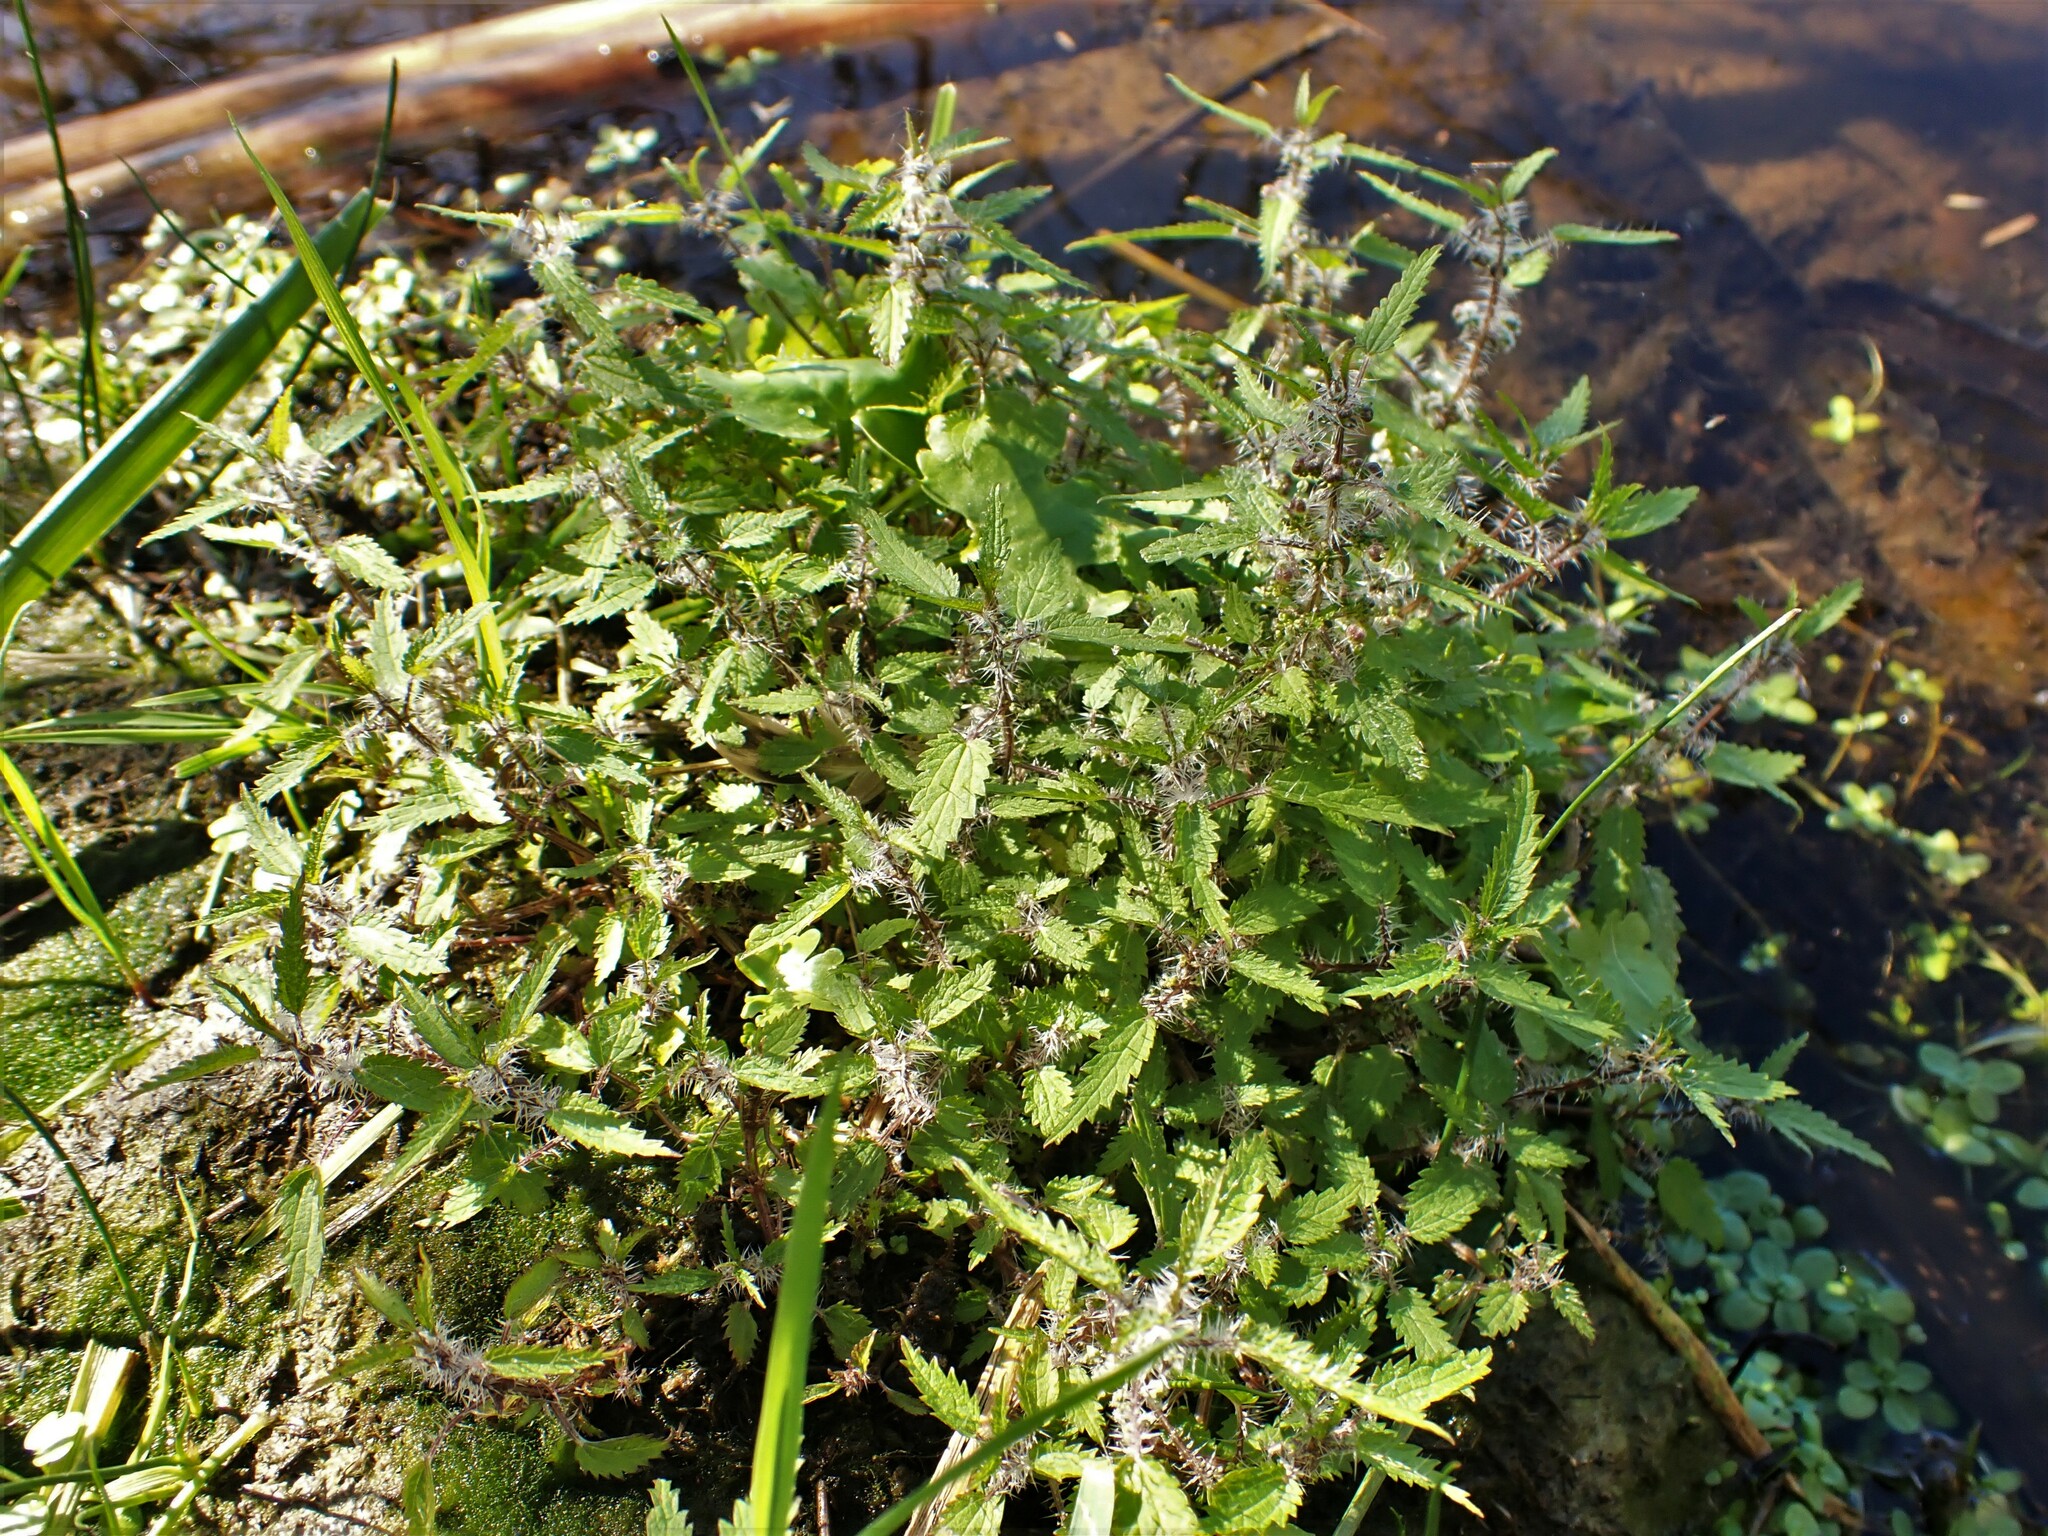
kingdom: Plantae
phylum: Tracheophyta
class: Magnoliopsida
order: Rosales
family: Urticaceae
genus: Urtica
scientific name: Urtica perconfusa
